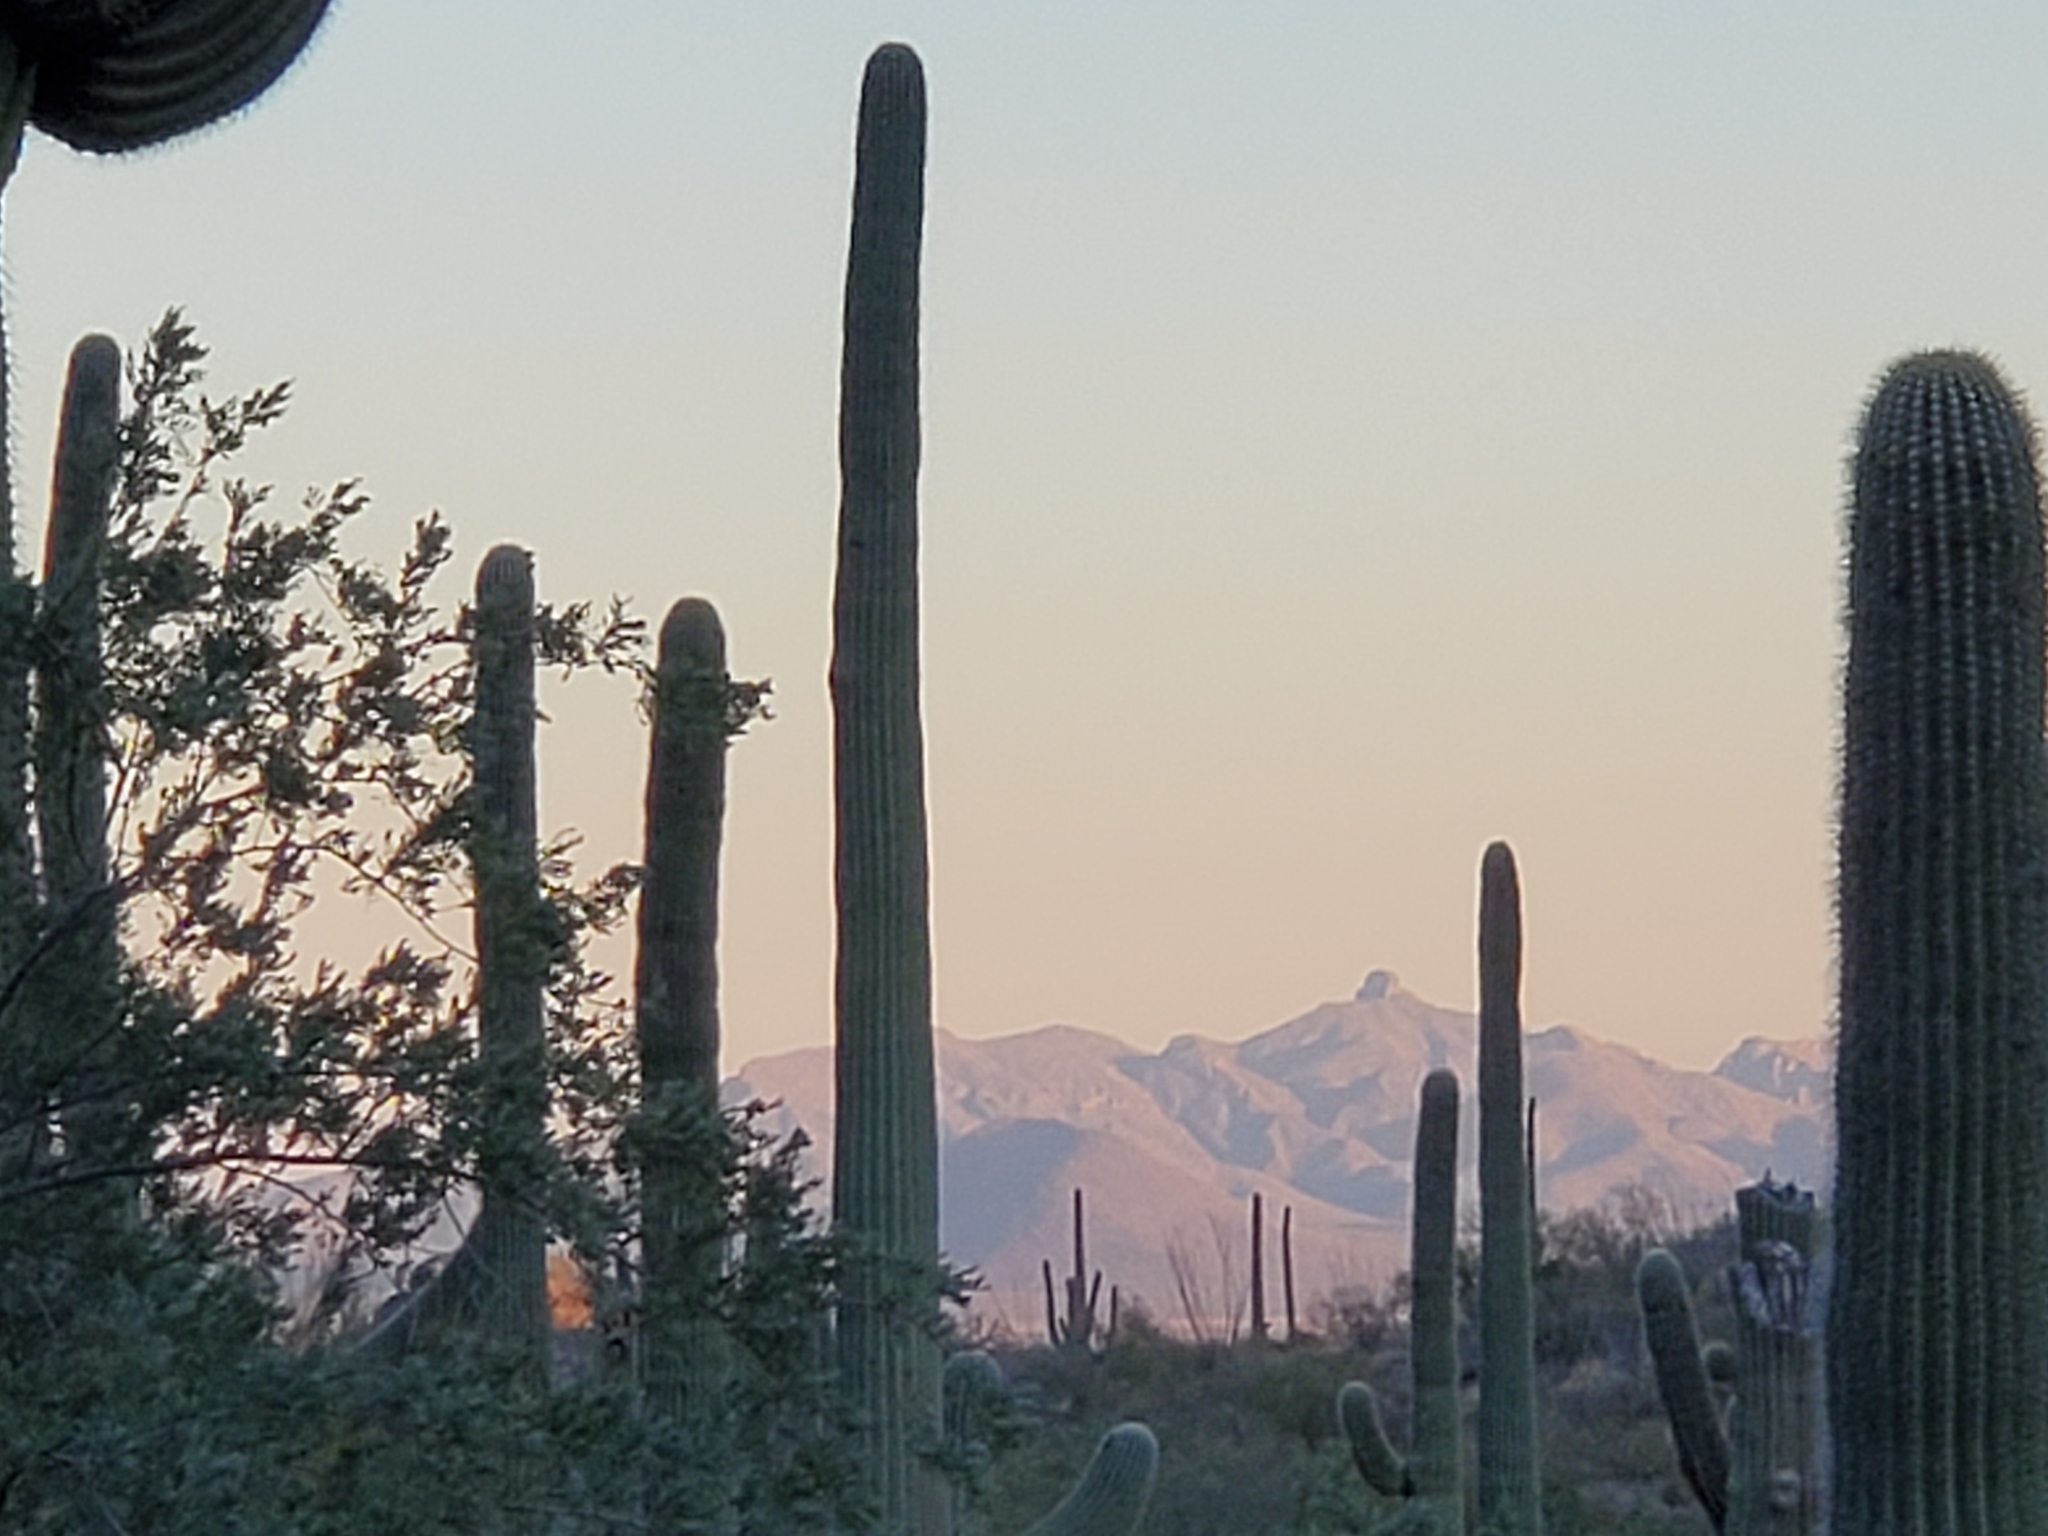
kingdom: Plantae
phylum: Tracheophyta
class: Magnoliopsida
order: Caryophyllales
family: Cactaceae
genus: Carnegiea
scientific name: Carnegiea gigantea
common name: Saguaro
